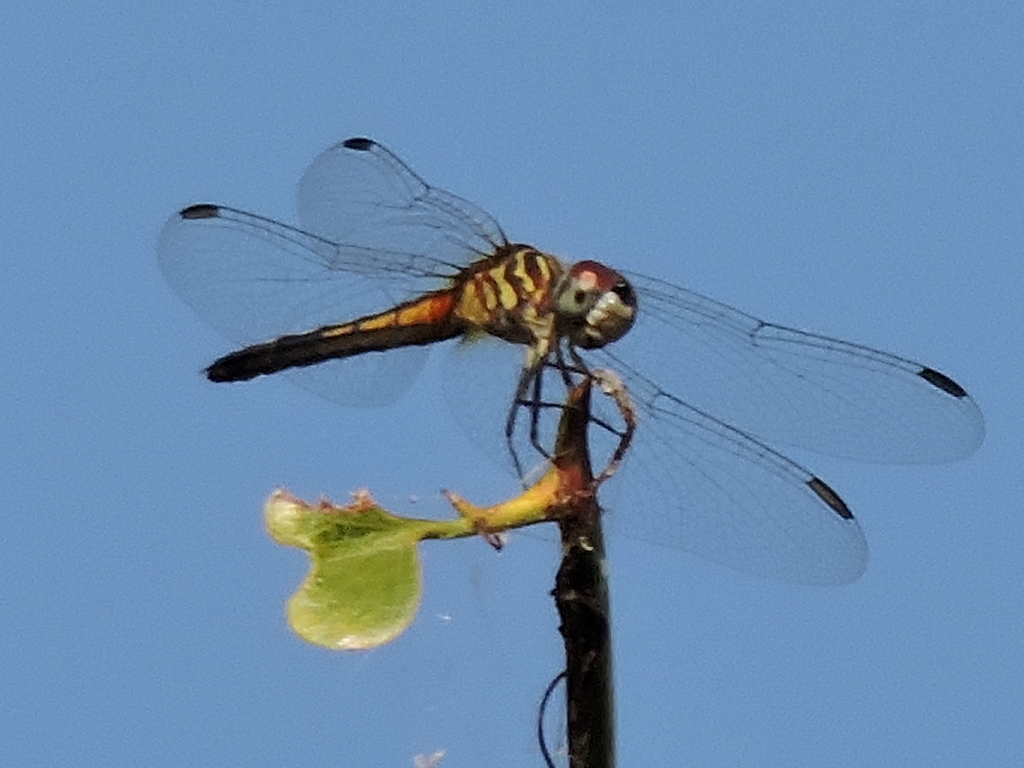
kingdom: Animalia
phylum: Arthropoda
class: Insecta
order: Odonata
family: Libellulidae
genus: Pachydiplax
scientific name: Pachydiplax longipennis
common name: Blue dasher
